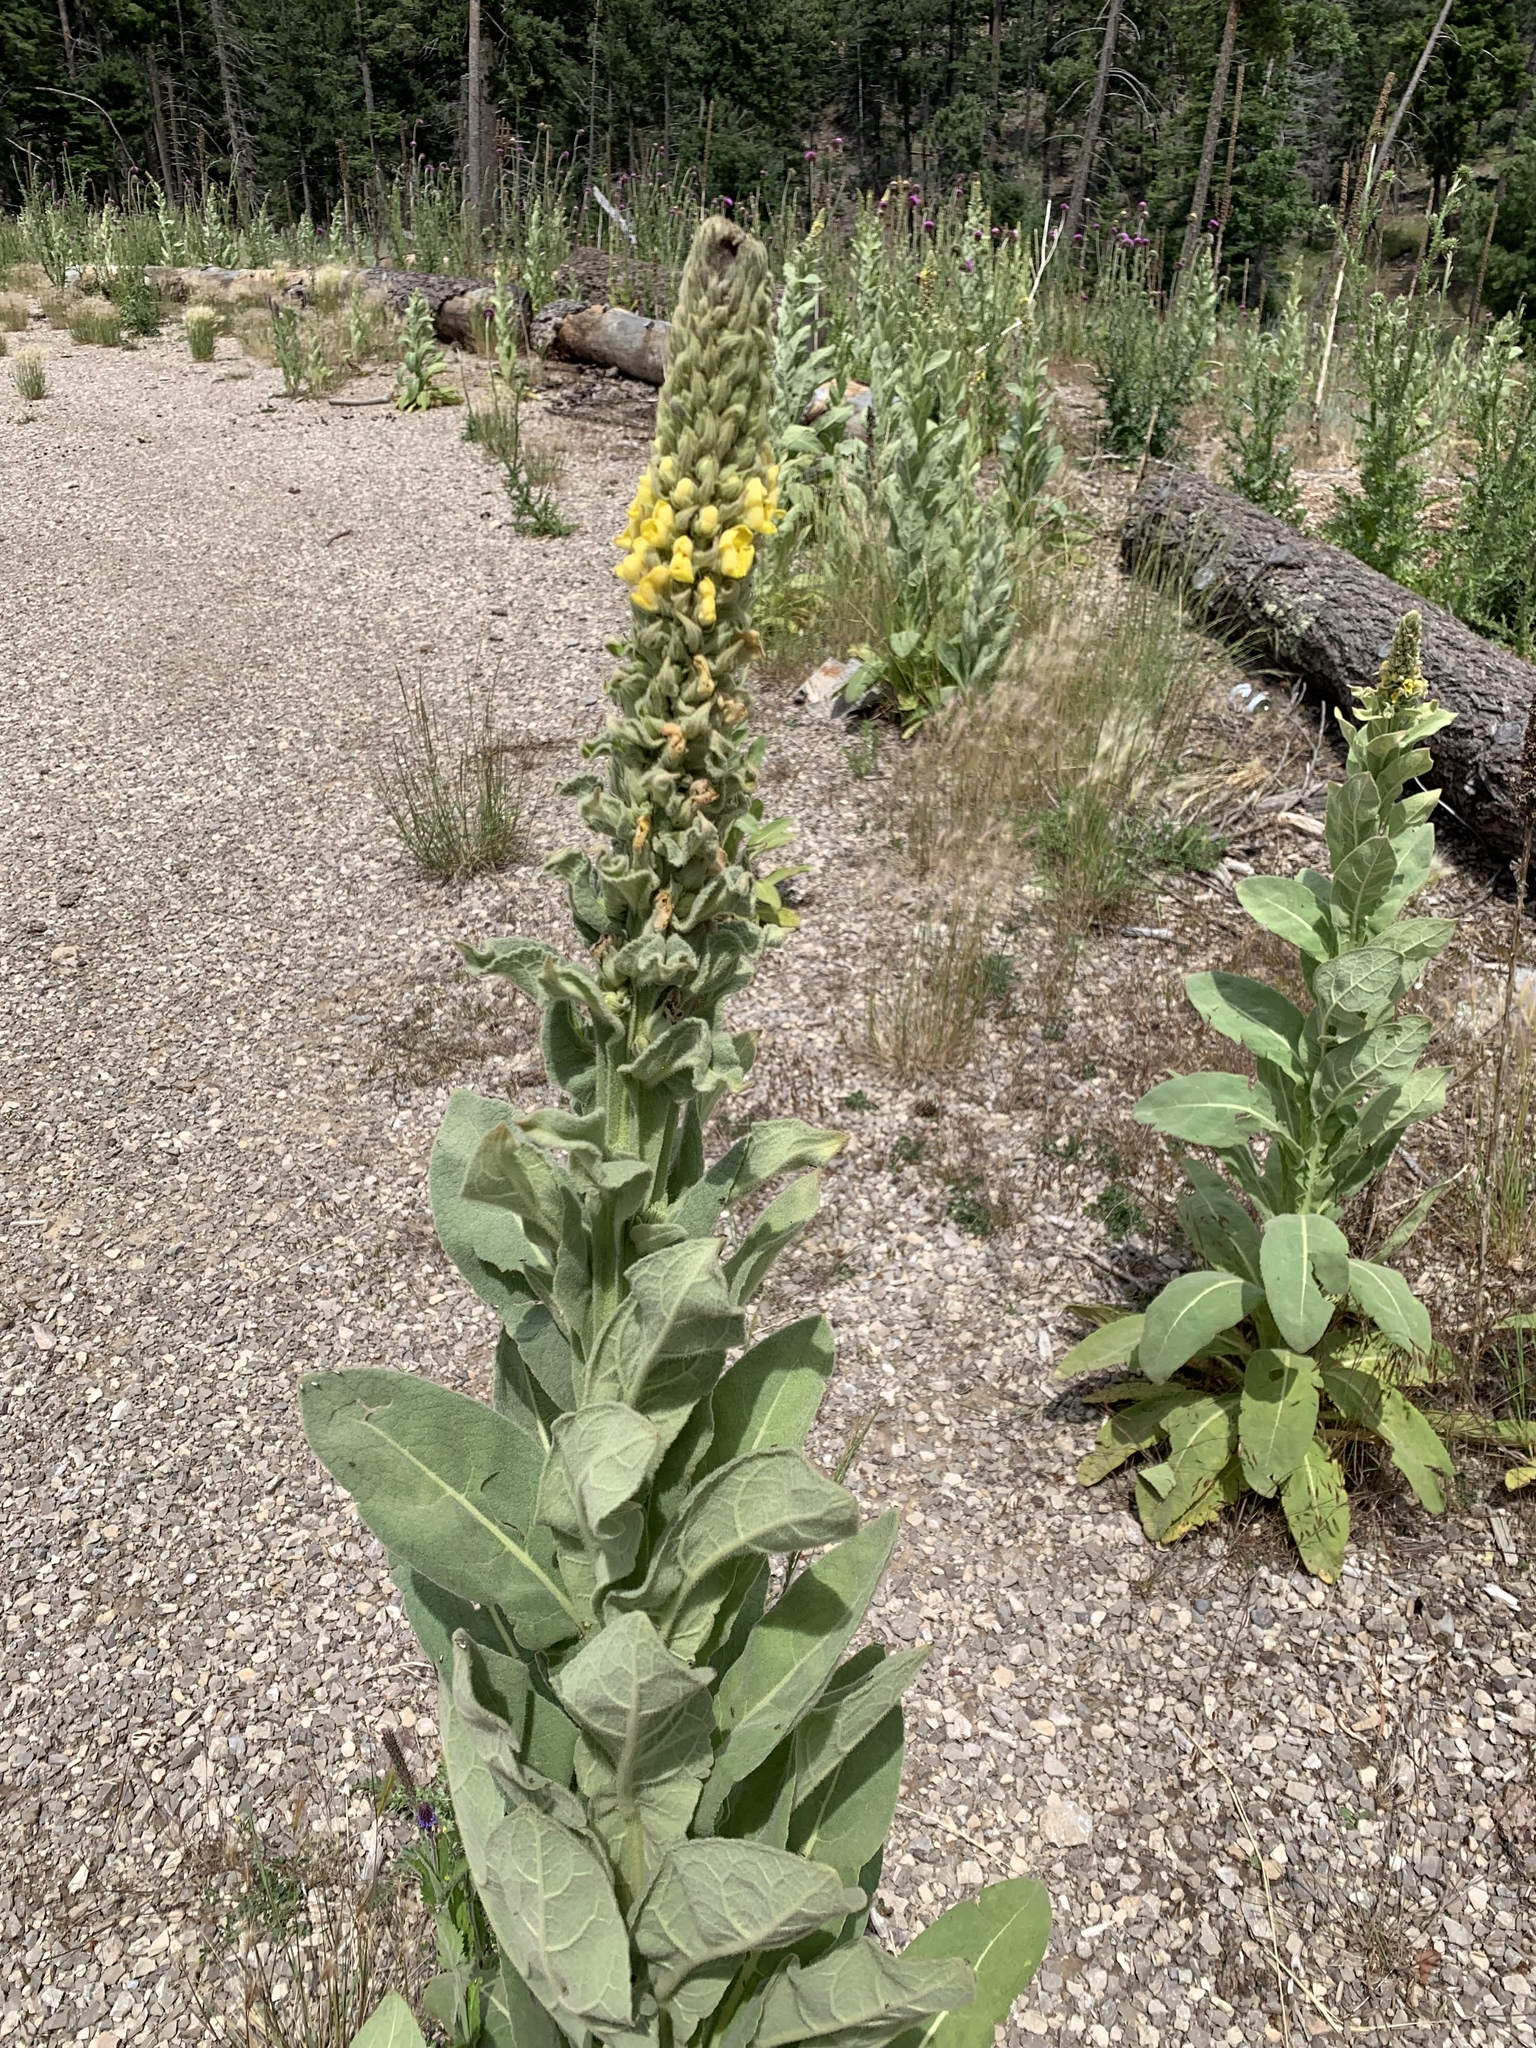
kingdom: Plantae
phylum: Tracheophyta
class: Magnoliopsida
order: Lamiales
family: Scrophulariaceae
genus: Verbascum
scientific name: Verbascum thapsus
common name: Common mullein
